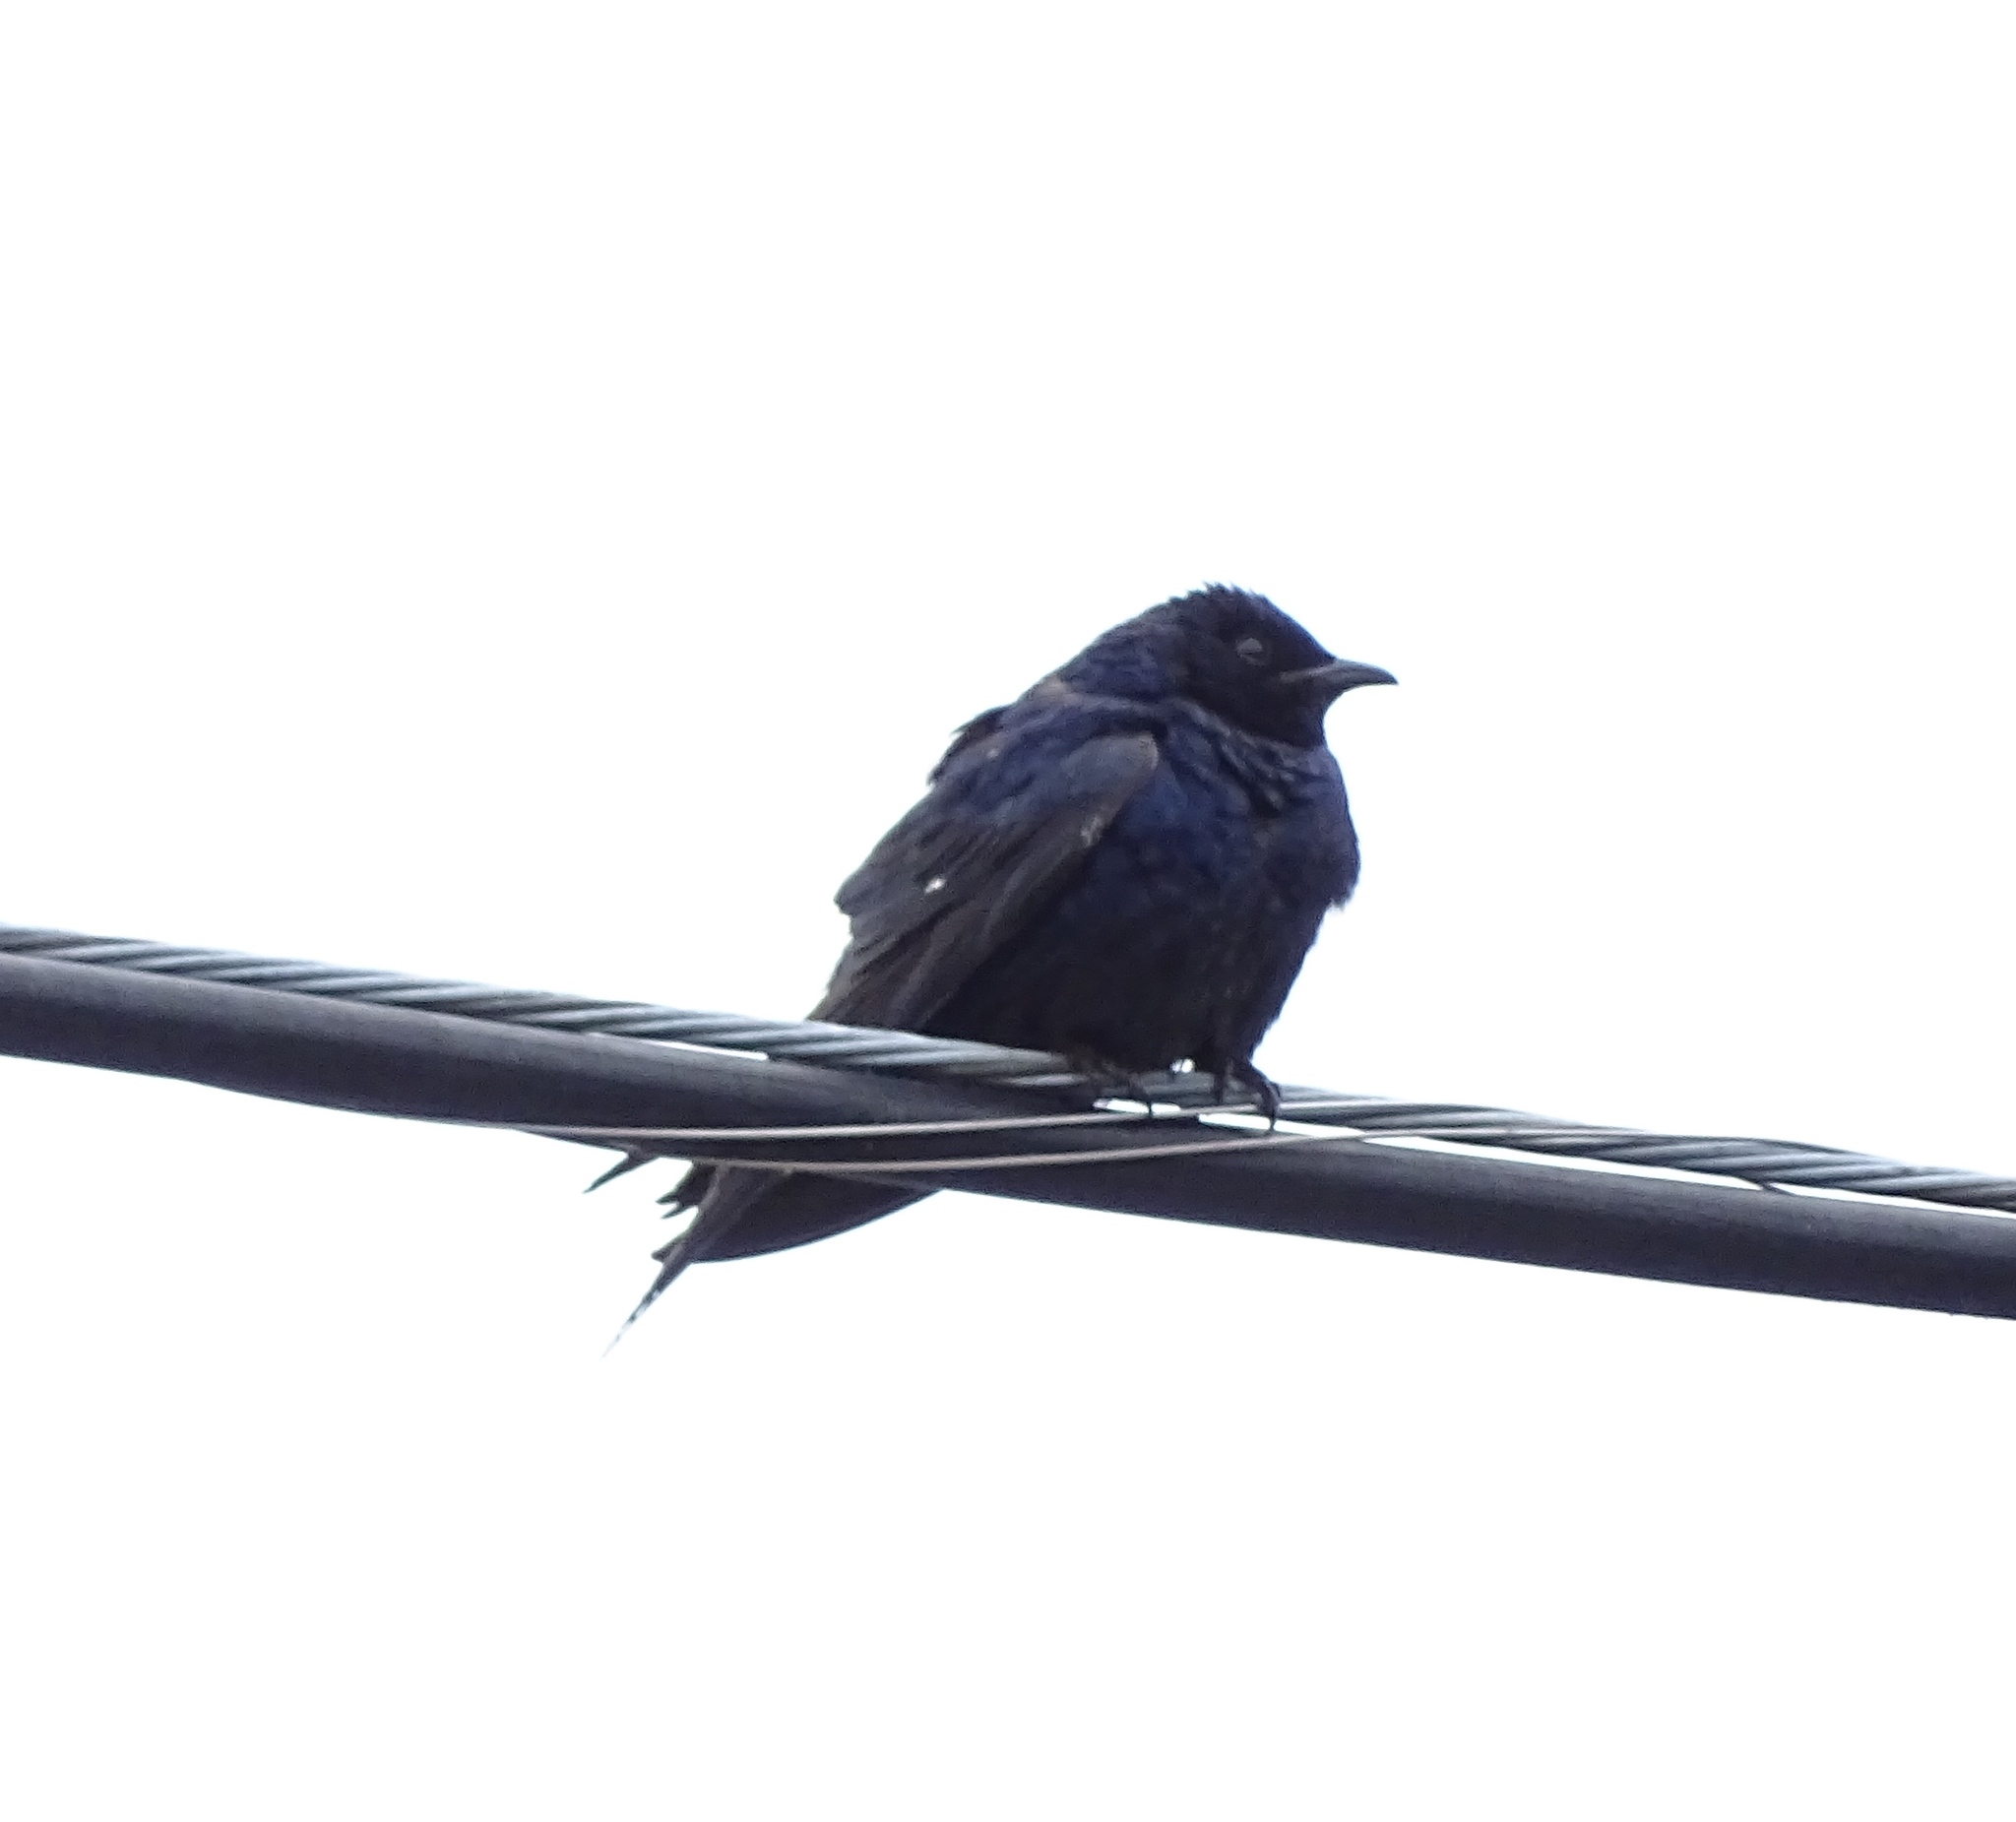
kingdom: Animalia
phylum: Chordata
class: Aves
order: Passeriformes
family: Hirundinidae
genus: Progne
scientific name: Progne subis
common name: Purple martin
